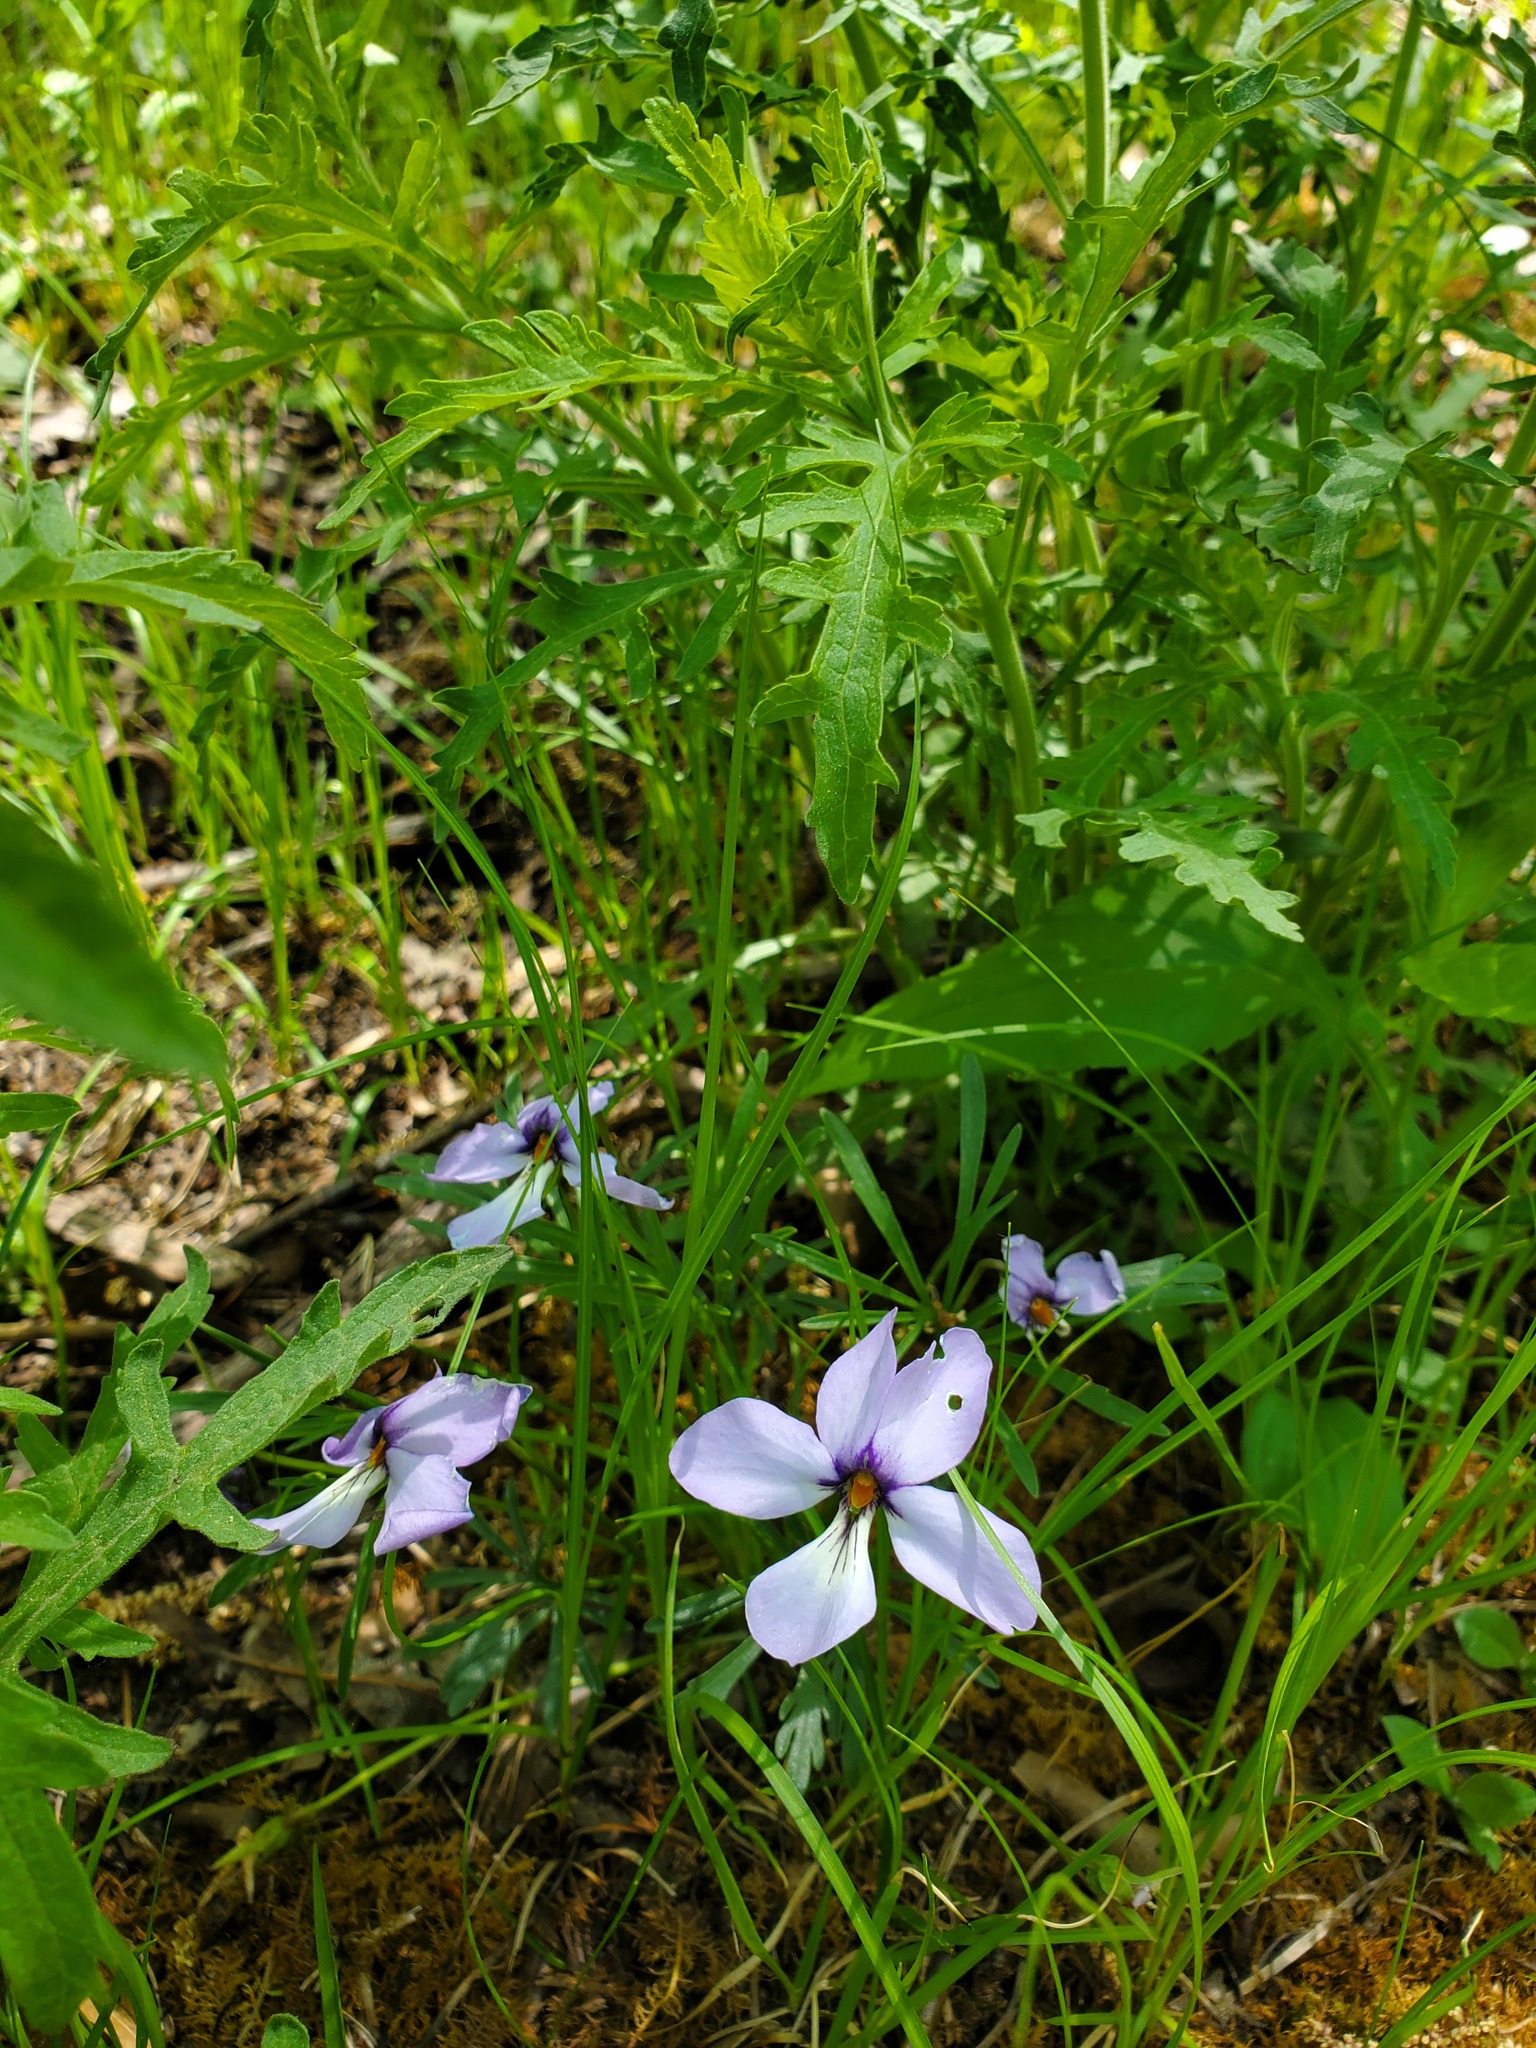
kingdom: Plantae
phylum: Tracheophyta
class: Magnoliopsida
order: Malpighiales
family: Violaceae
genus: Viola
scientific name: Viola pedata
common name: Pansy violet
